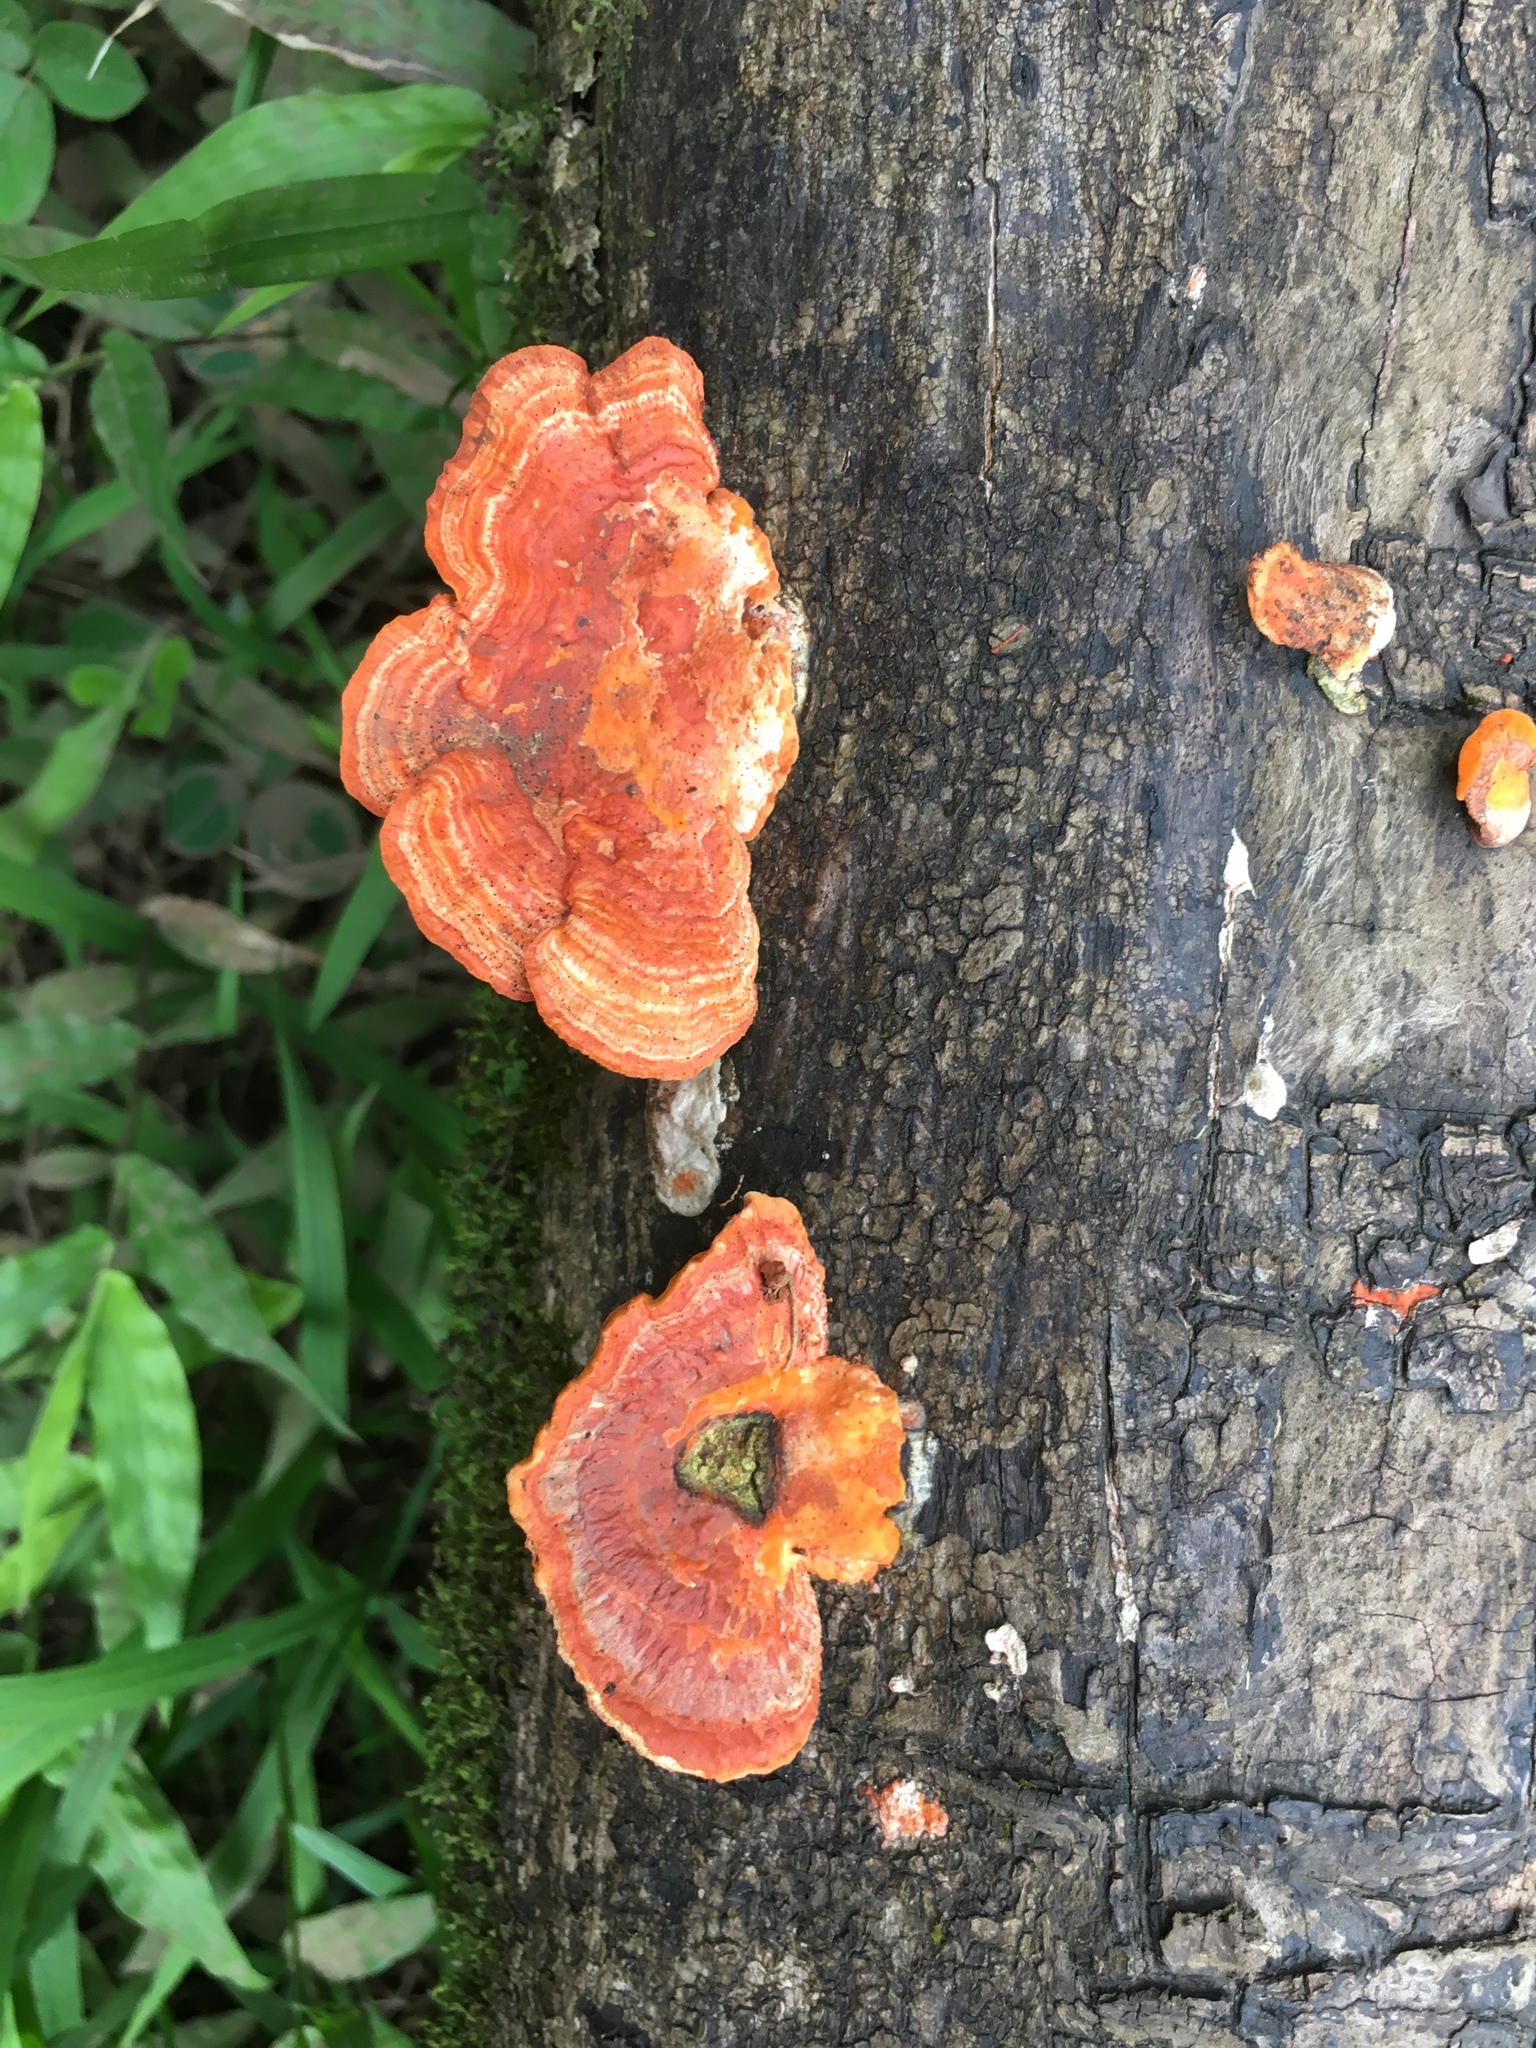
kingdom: Fungi
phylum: Basidiomycota
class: Agaricomycetes
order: Polyporales
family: Polyporaceae
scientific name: Polyporaceae
